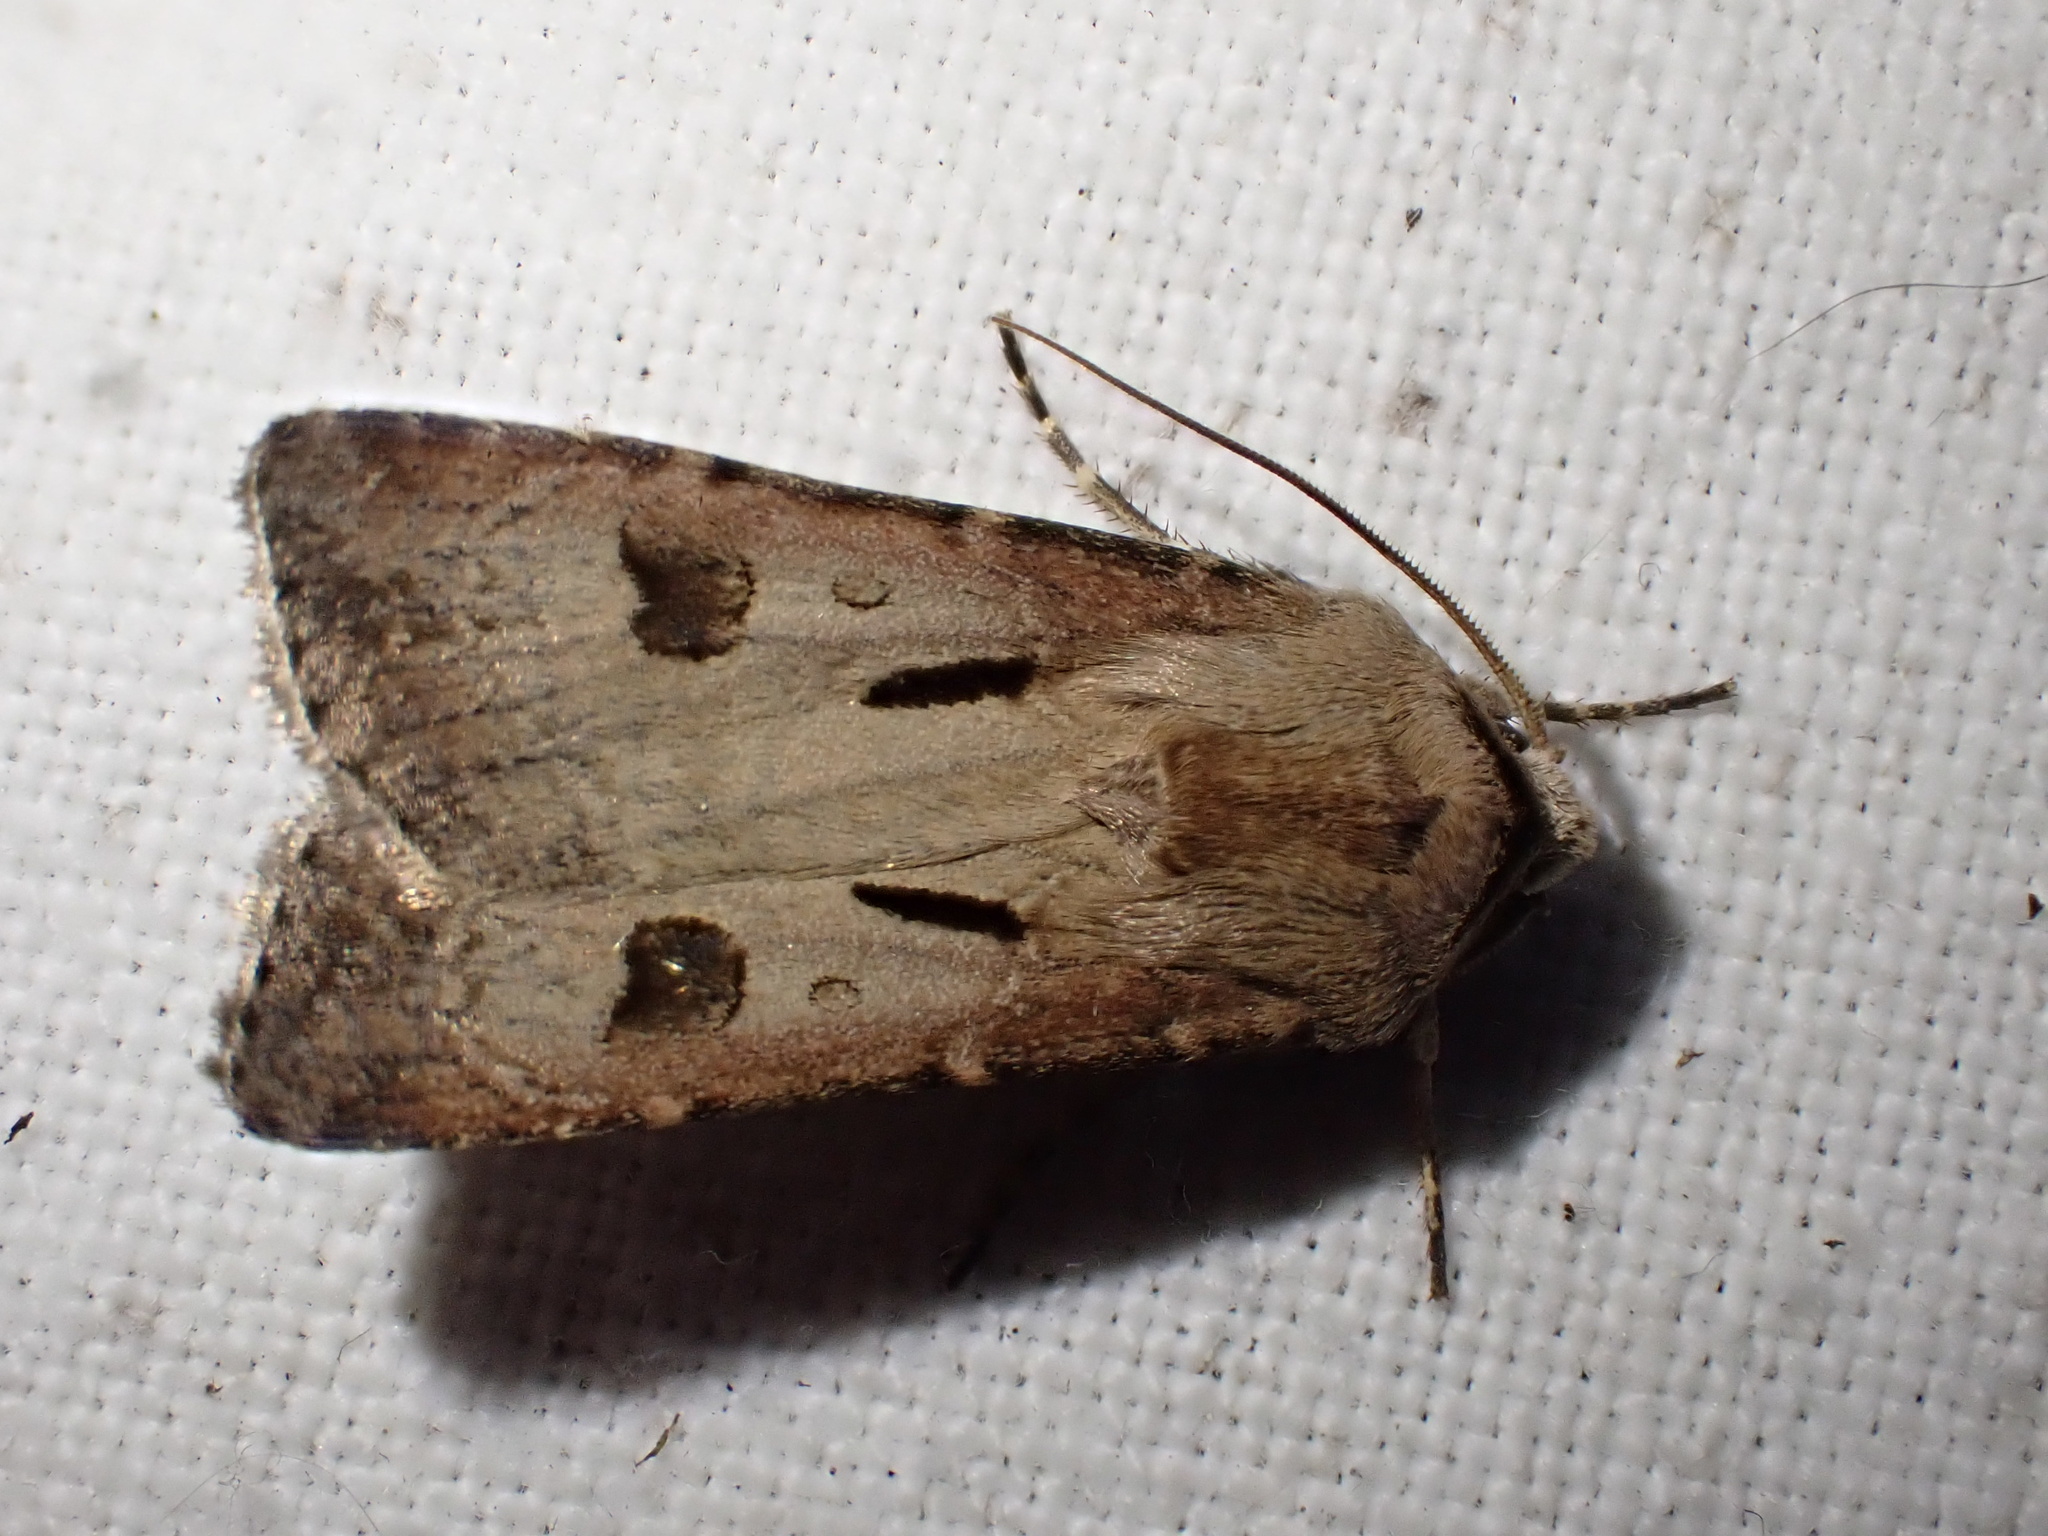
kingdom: Animalia
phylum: Arthropoda
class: Insecta
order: Lepidoptera
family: Noctuidae
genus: Agrotis
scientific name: Agrotis exclamationis
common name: Heart and dart
